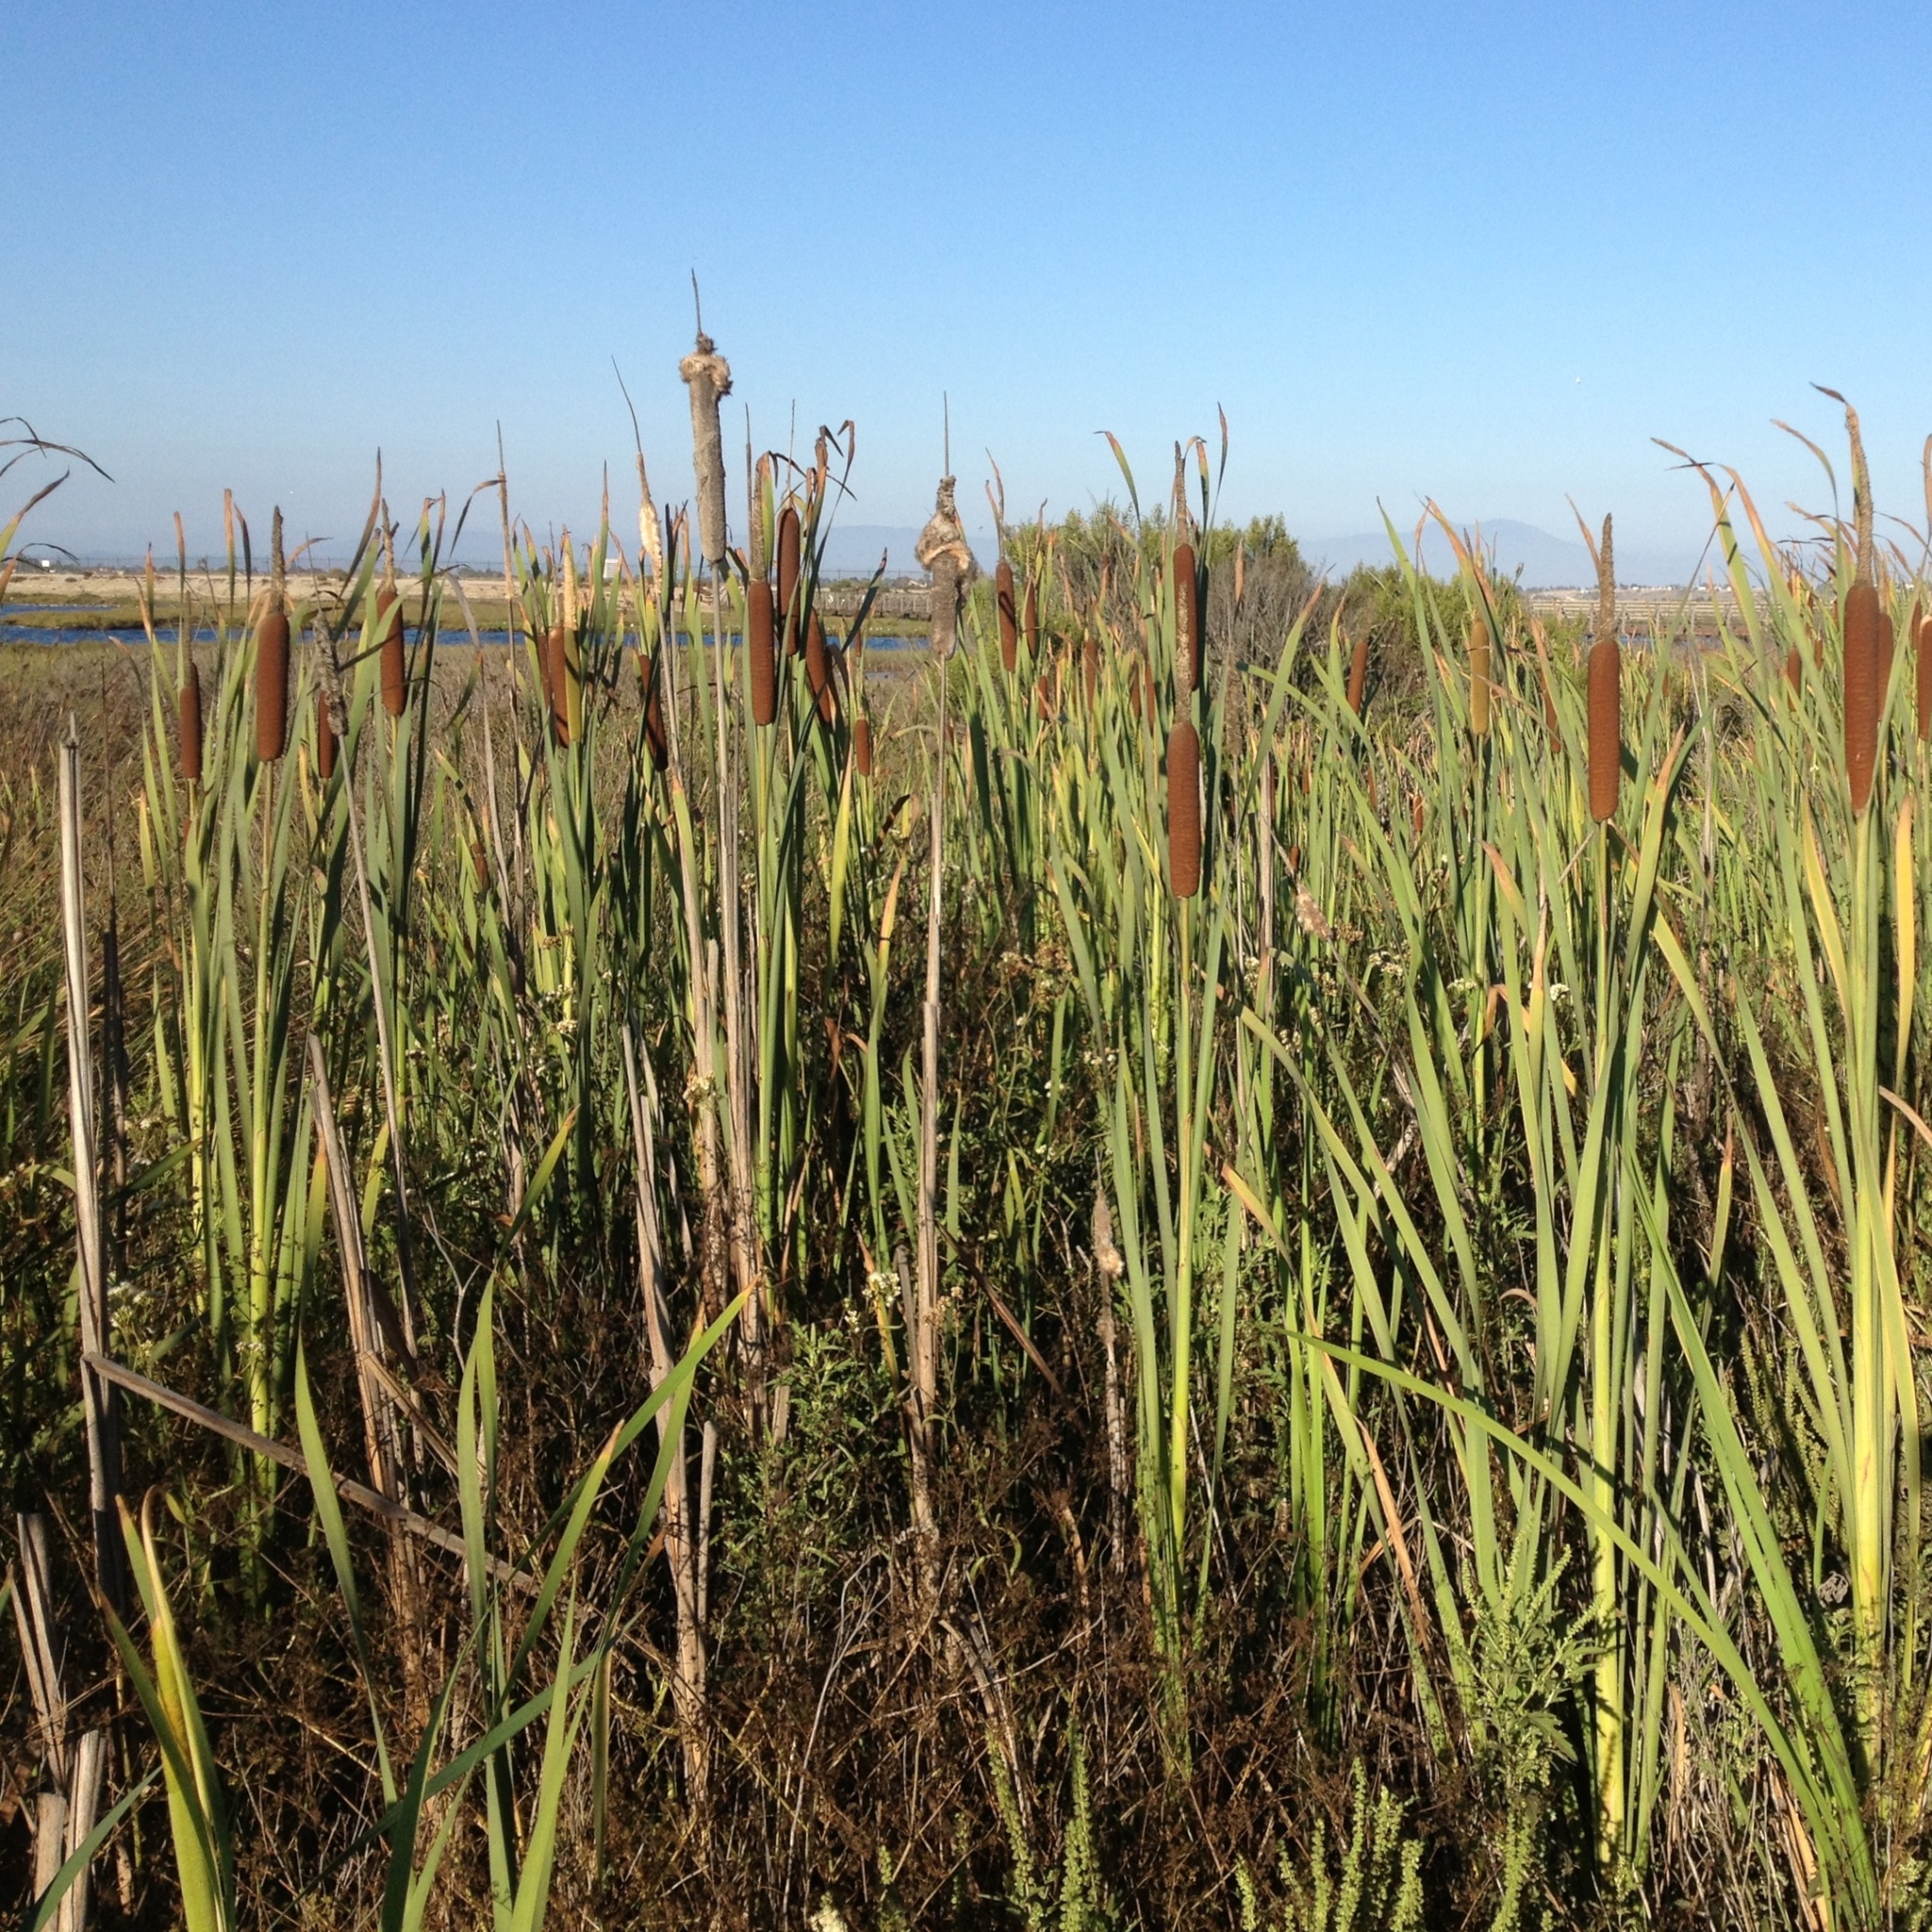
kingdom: Plantae
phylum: Tracheophyta
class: Liliopsida
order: Poales
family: Typhaceae
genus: Typha
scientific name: Typha latifolia
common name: Broadleaf cattail
